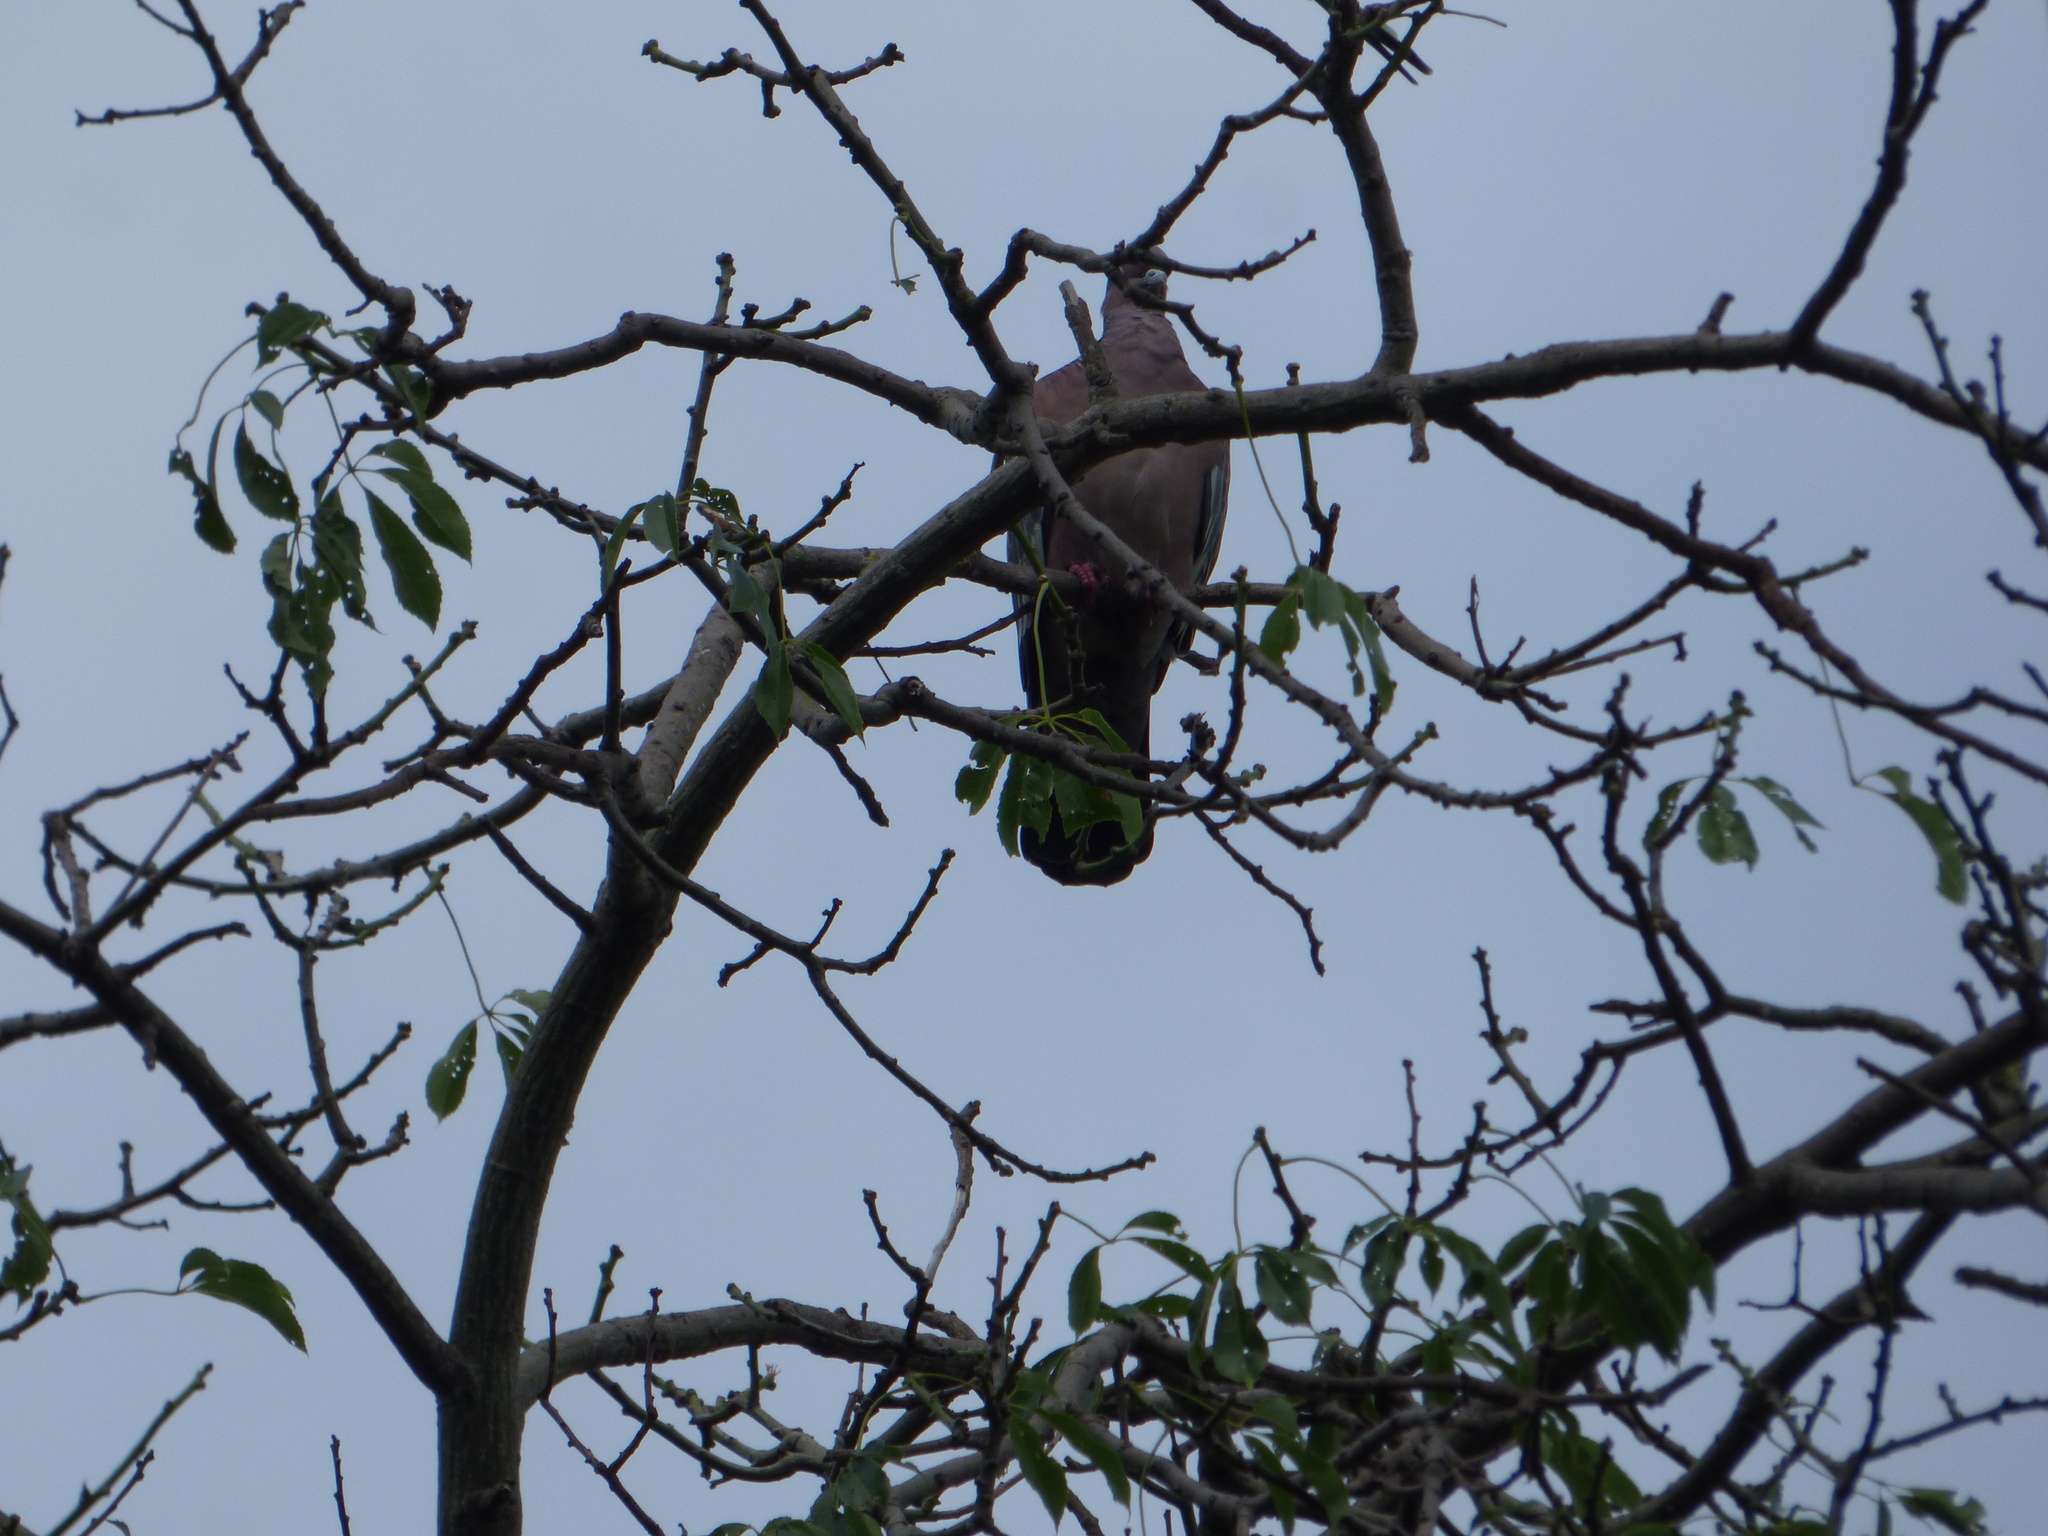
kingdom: Animalia
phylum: Chordata
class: Aves
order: Columbiformes
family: Columbidae
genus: Patagioenas
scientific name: Patagioenas picazuro
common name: Picazuro pigeon
